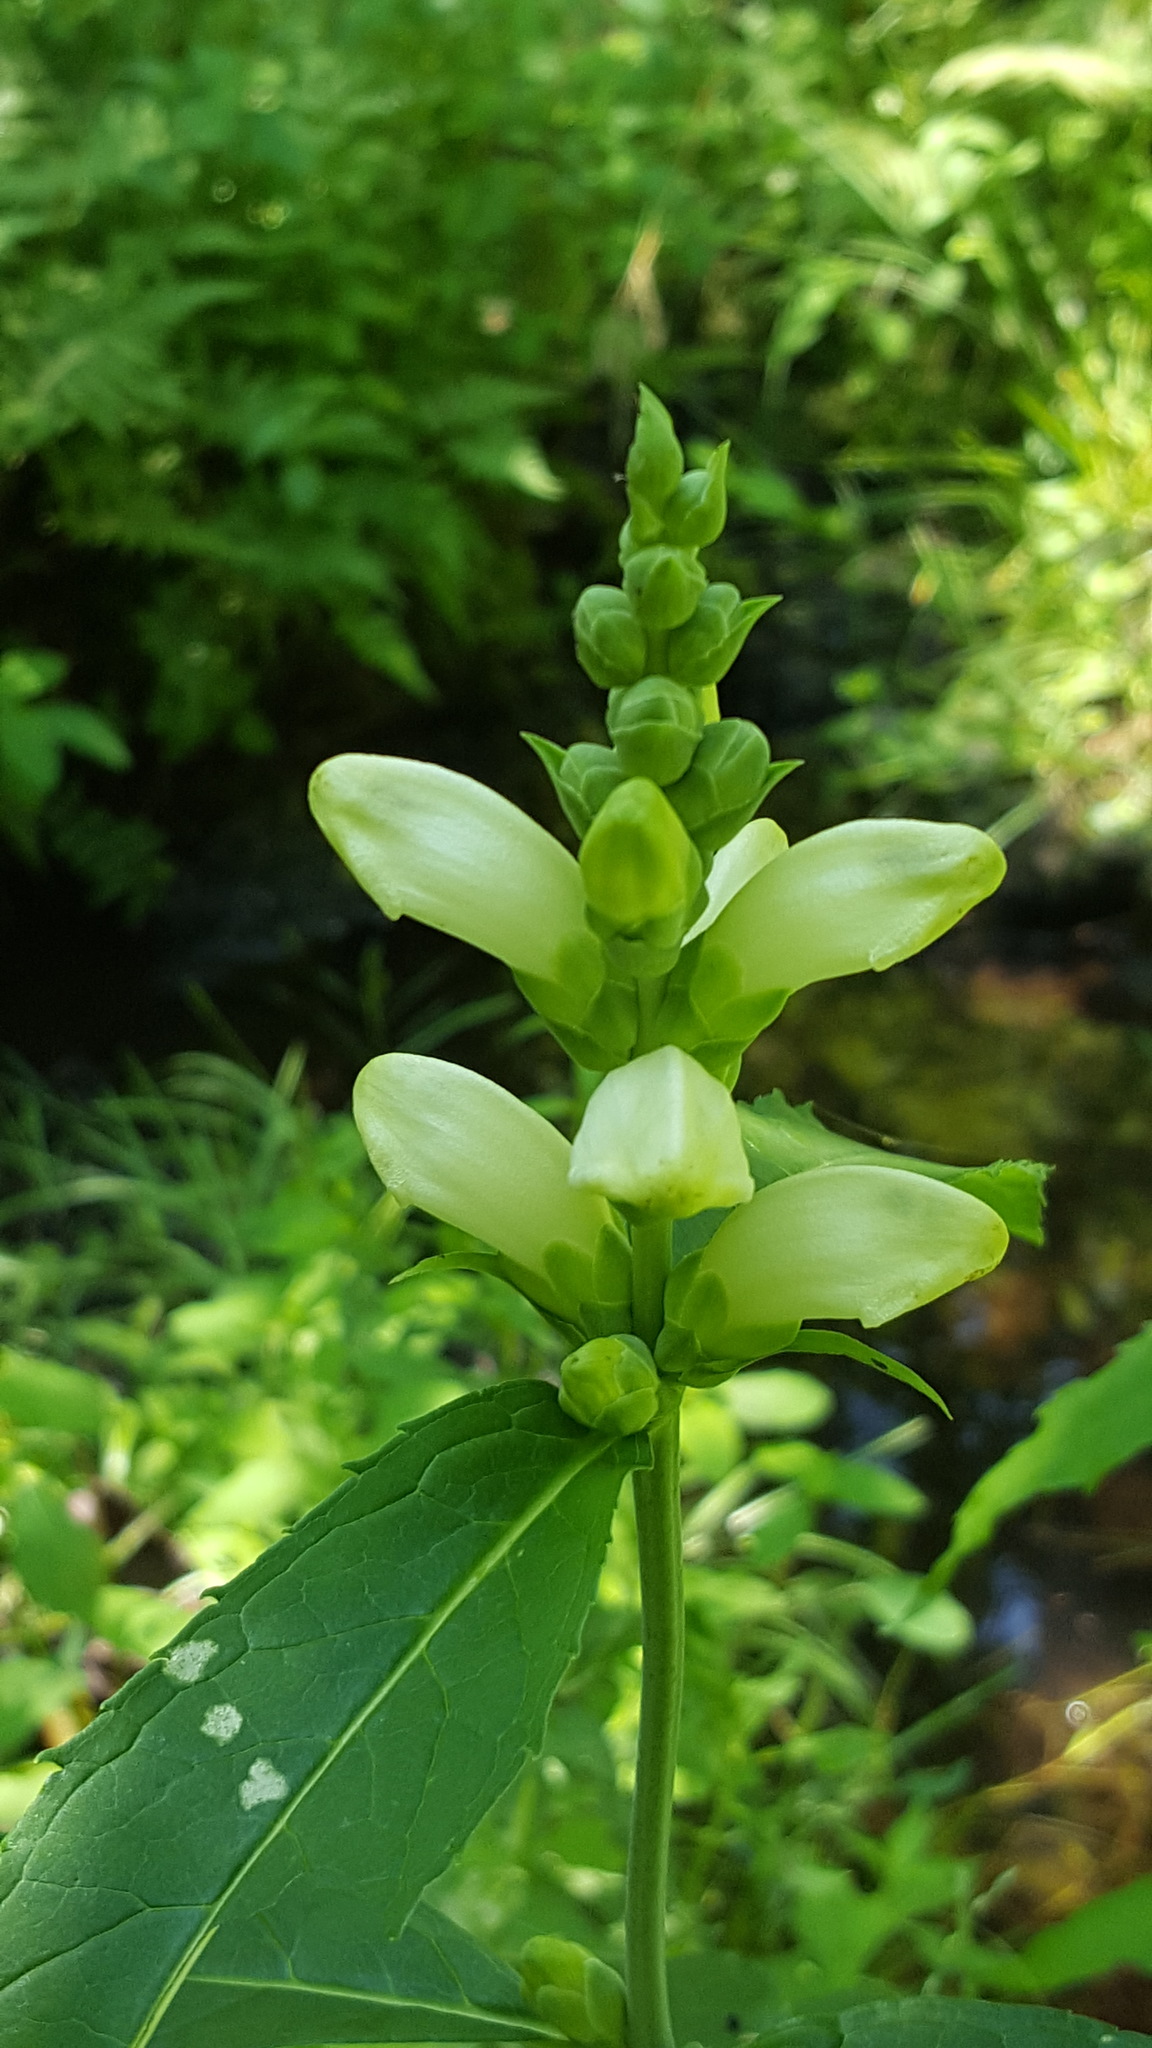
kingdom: Plantae
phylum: Tracheophyta
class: Magnoliopsida
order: Lamiales
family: Plantaginaceae
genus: Chelone
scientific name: Chelone glabra
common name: Snakehead
